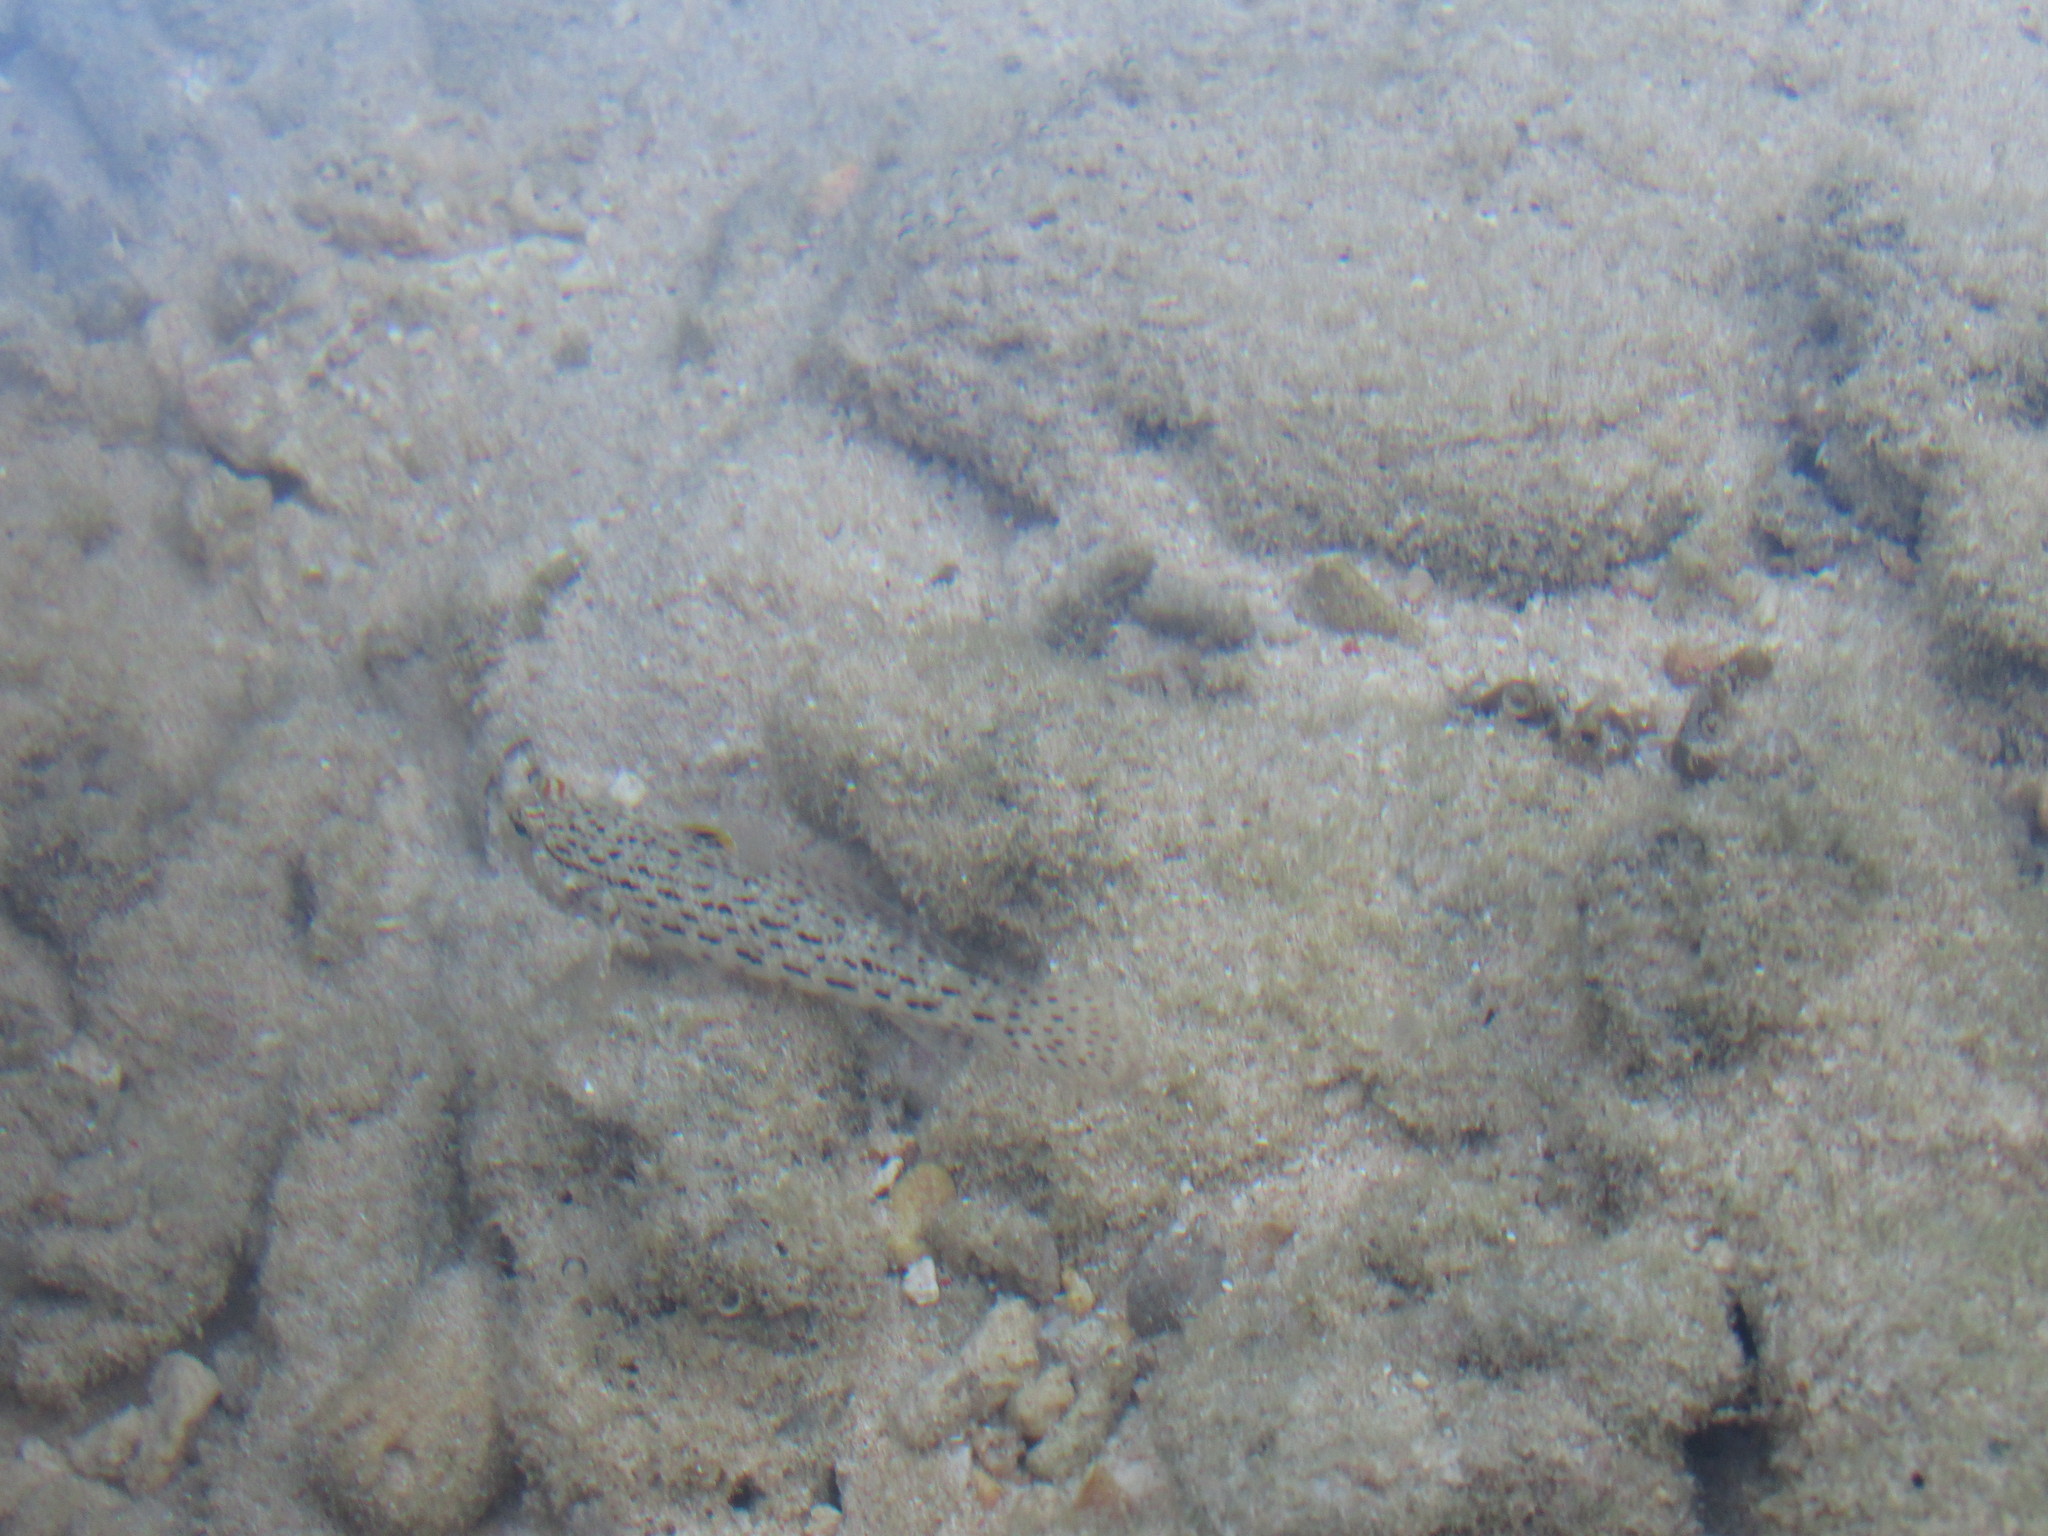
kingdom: Animalia
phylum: Chordata
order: Perciformes
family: Gobiidae
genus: Istigobius
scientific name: Istigobius ornatus
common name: Ornate goby
